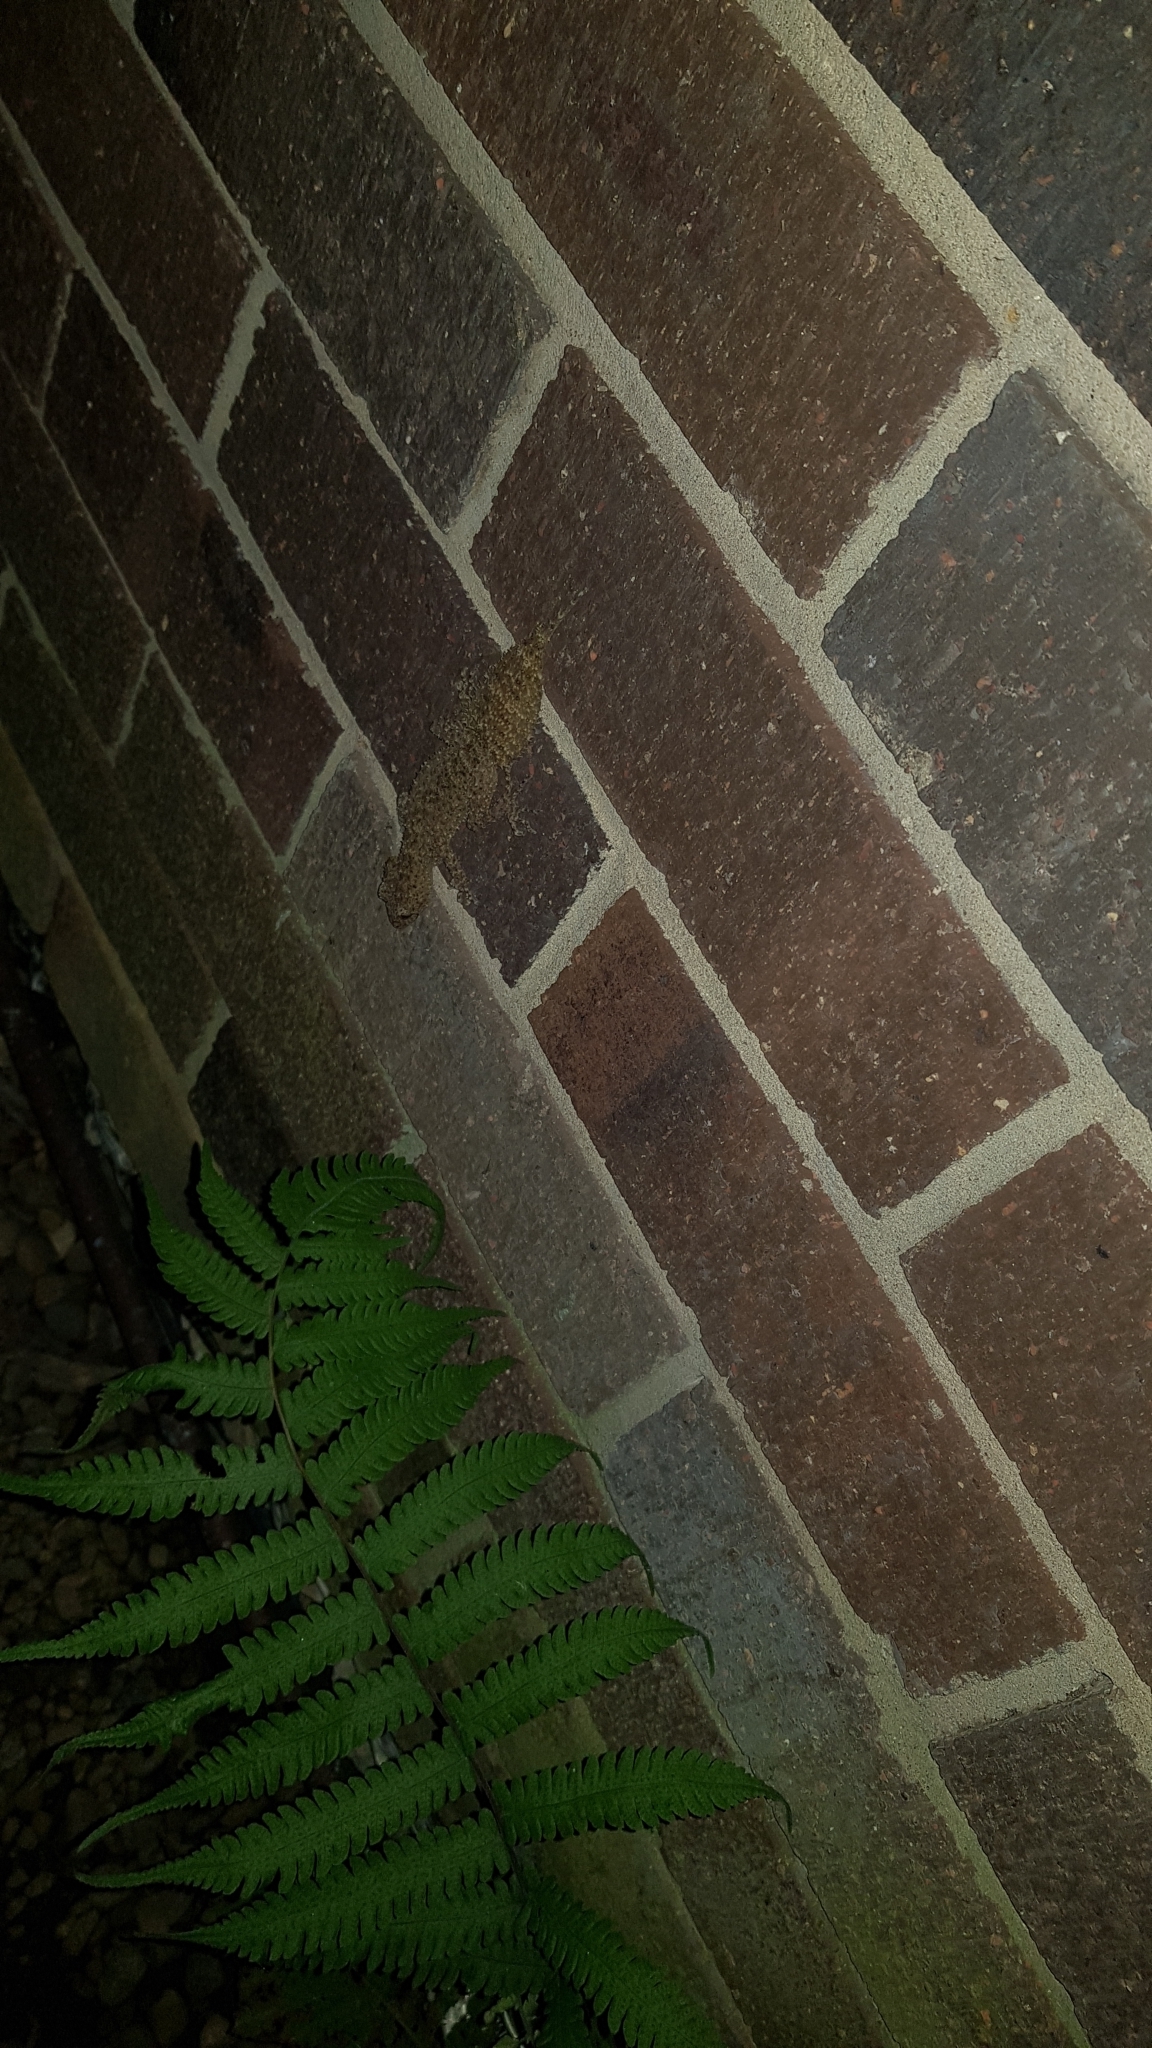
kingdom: Animalia
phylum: Chordata
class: Squamata
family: Carphodactylidae
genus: Phyllurus
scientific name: Phyllurus platurus
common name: Broad-tailed gecko
